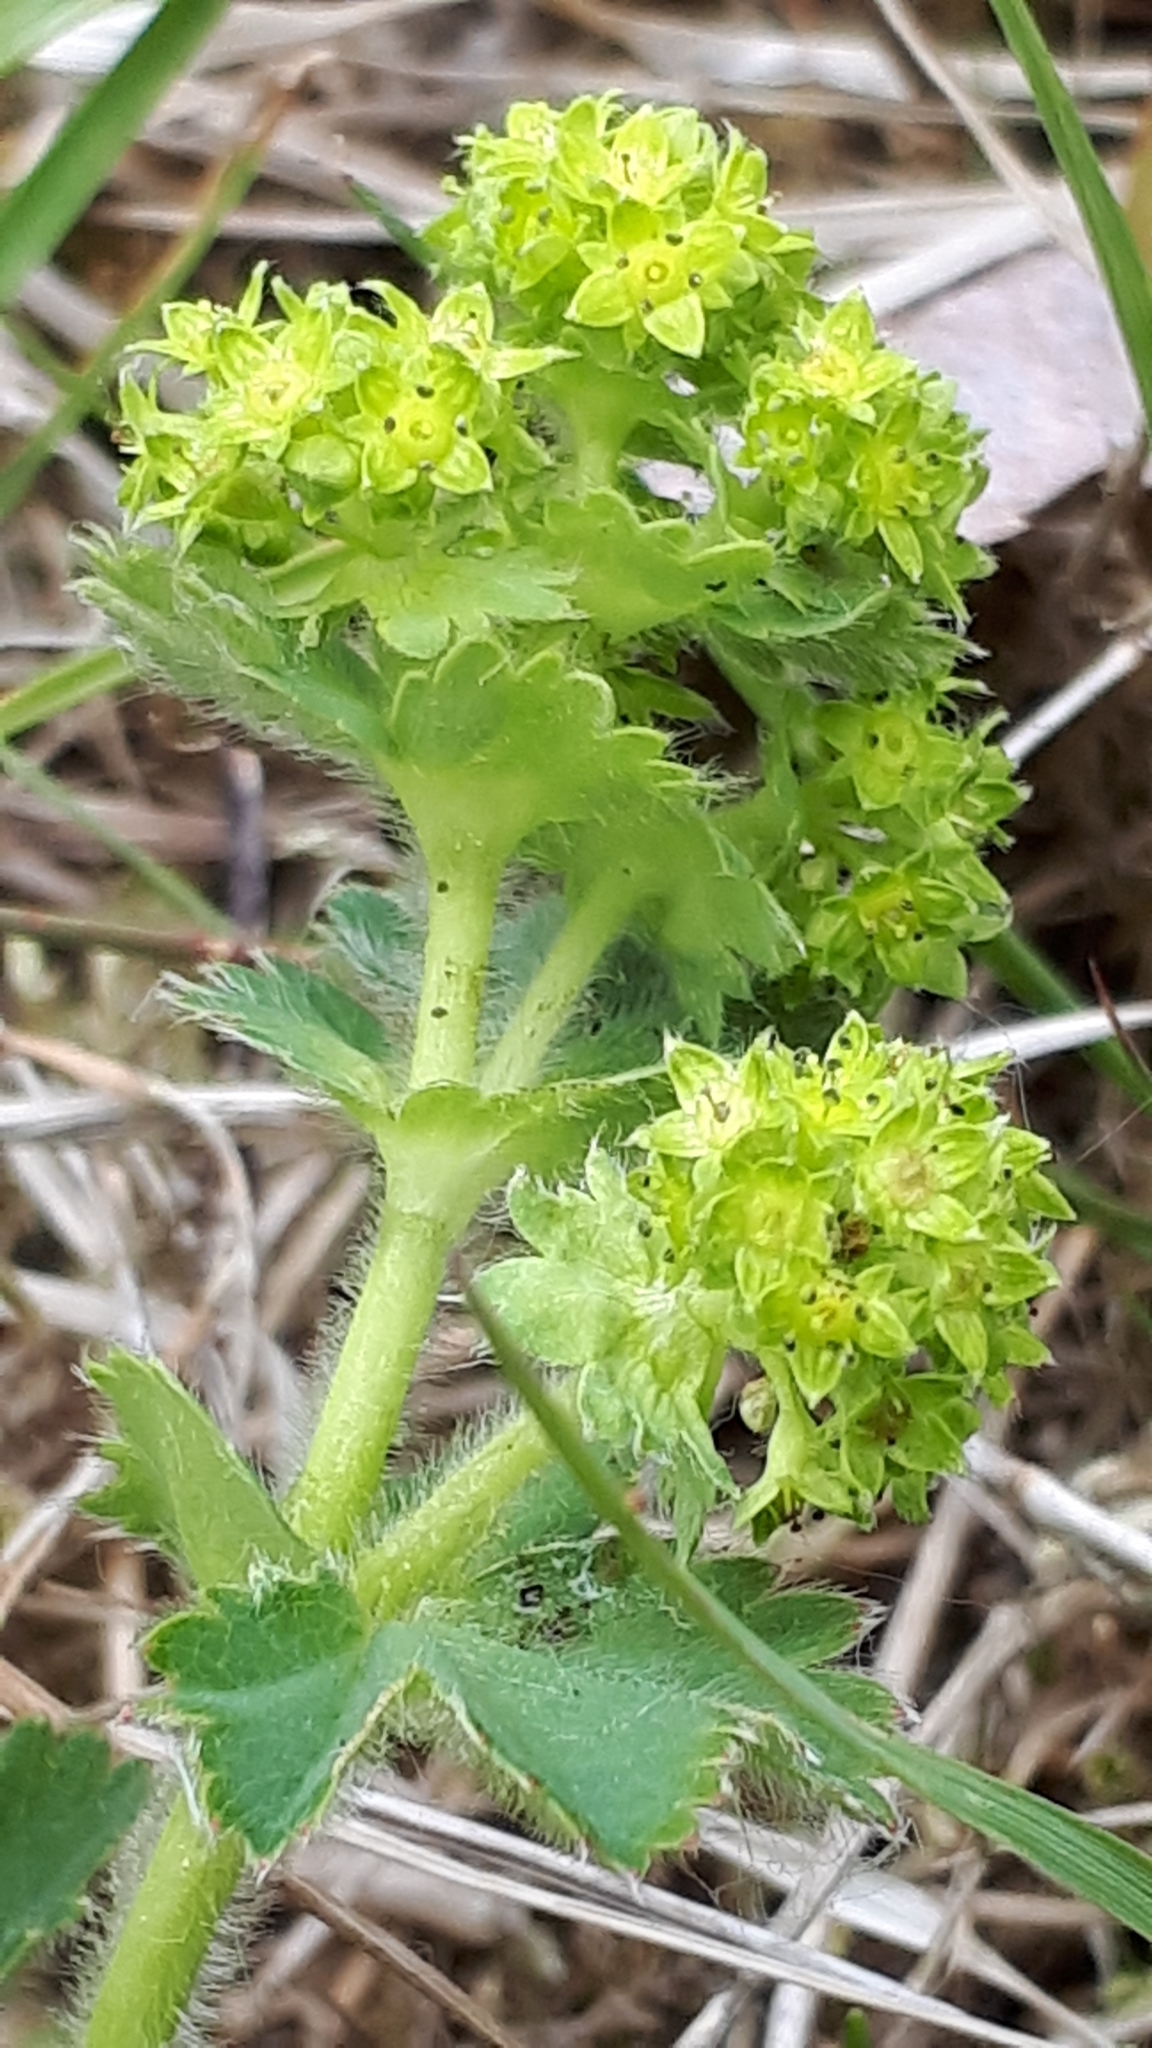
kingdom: Plantae
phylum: Tracheophyta
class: Magnoliopsida
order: Rosales
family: Rosaceae
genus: Alchemilla
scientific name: Alchemilla monticola
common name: Hairy lady's mantle
